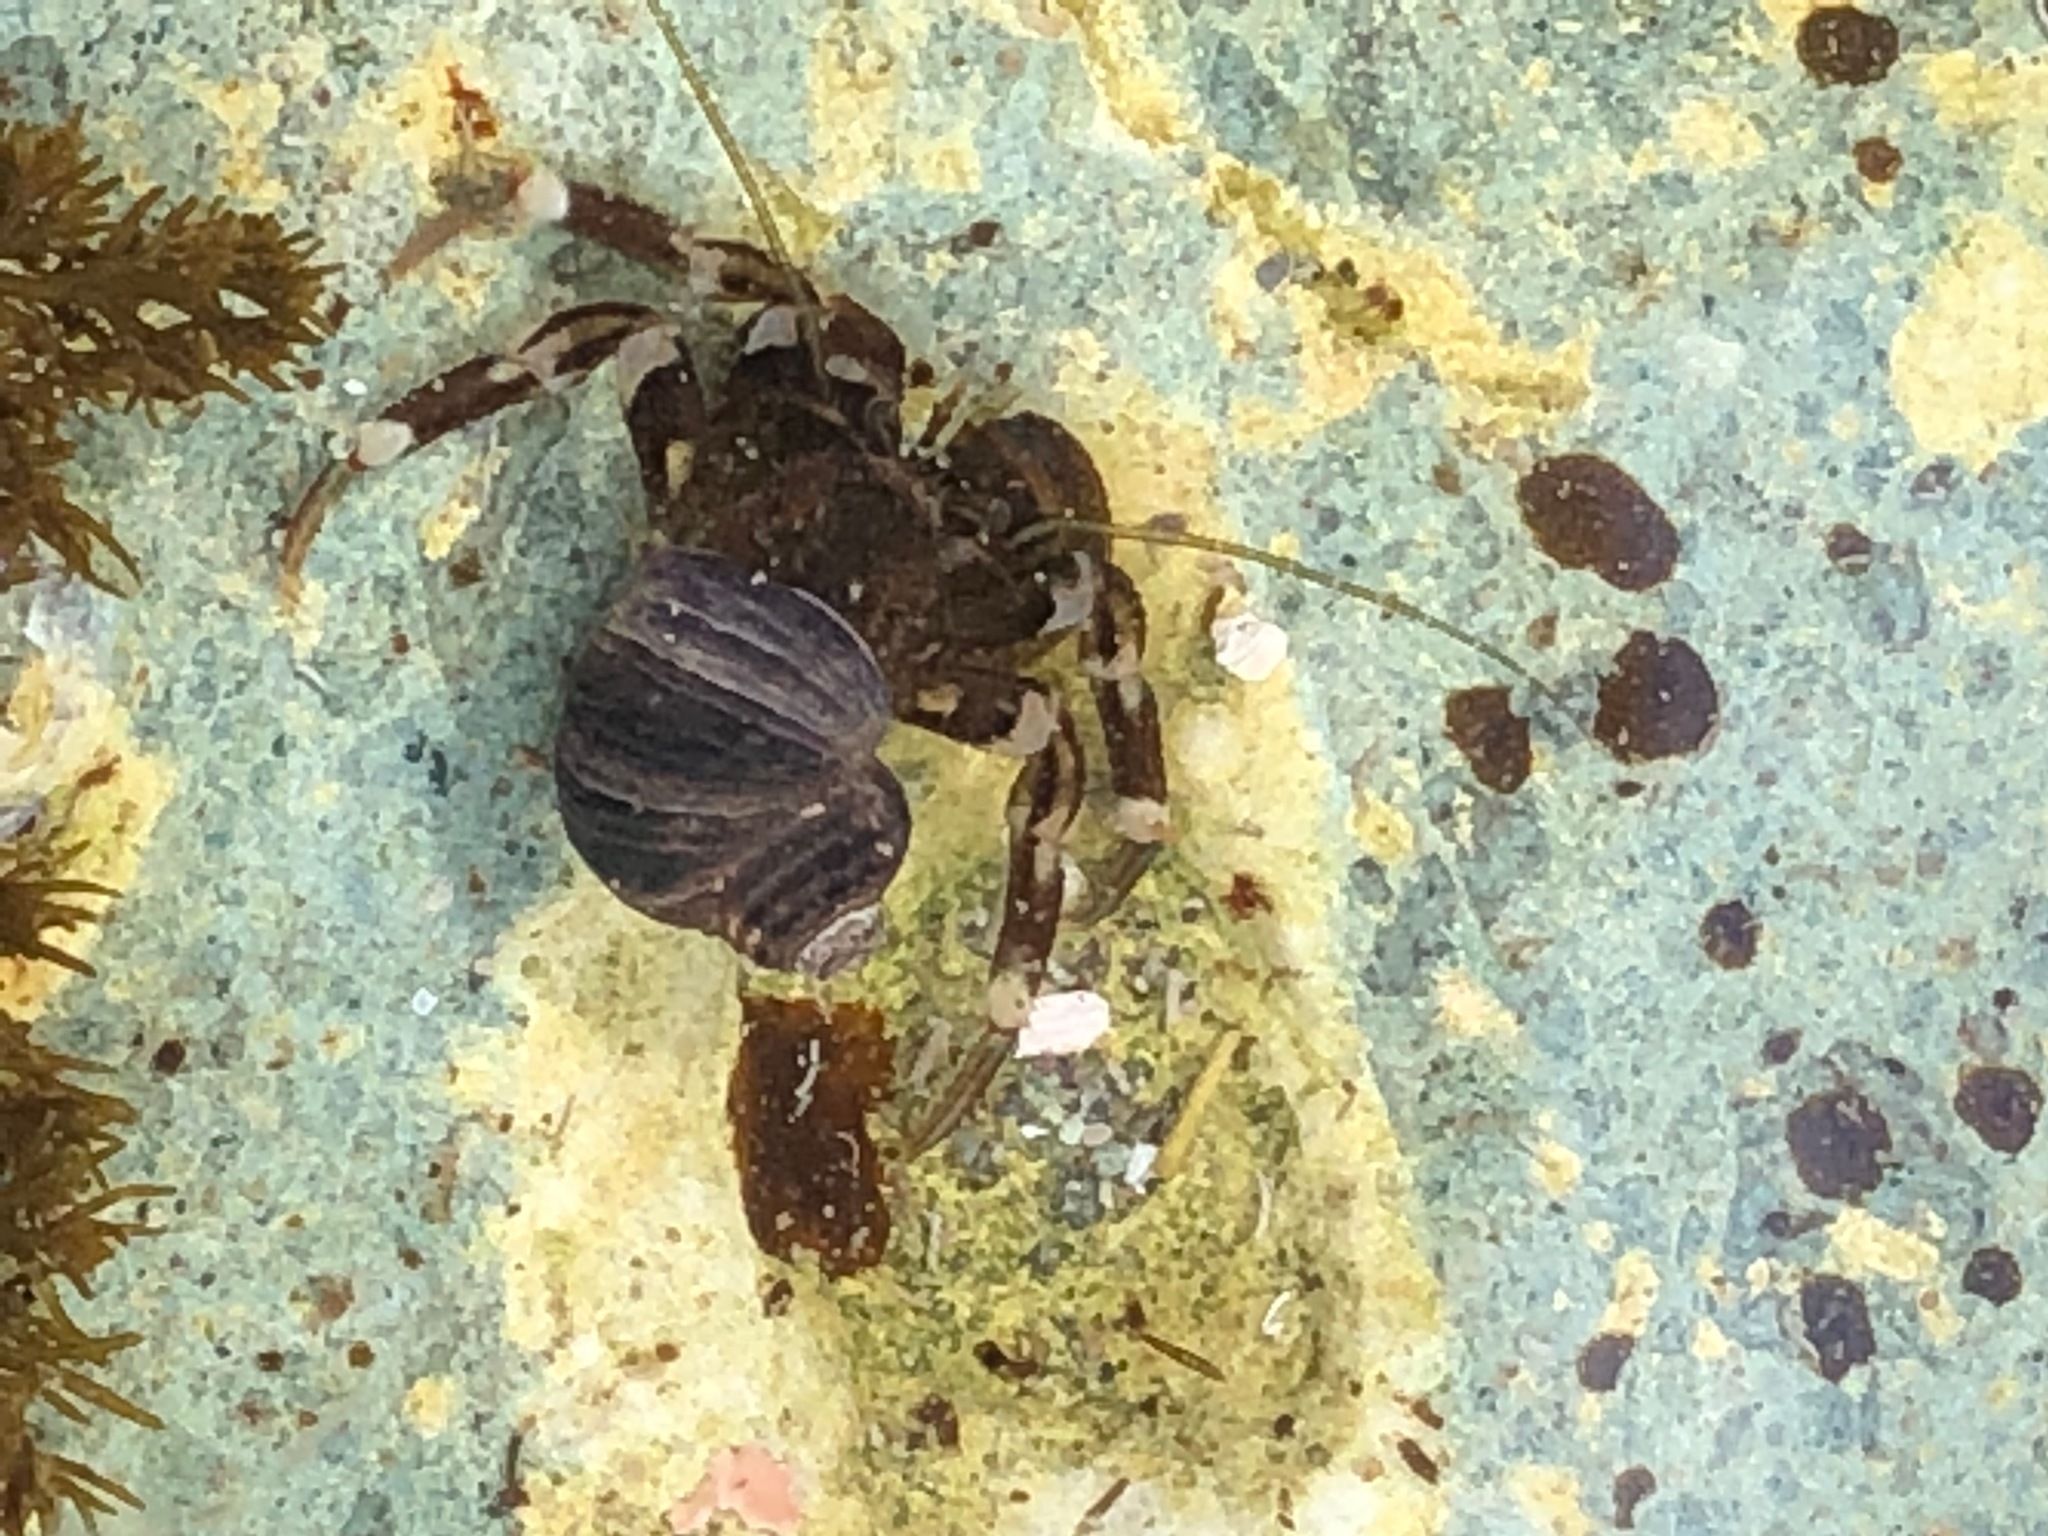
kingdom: Animalia
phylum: Arthropoda
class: Malacostraca
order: Decapoda
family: Paguridae
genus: Pagurus
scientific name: Pagurus hirsutiusculus
